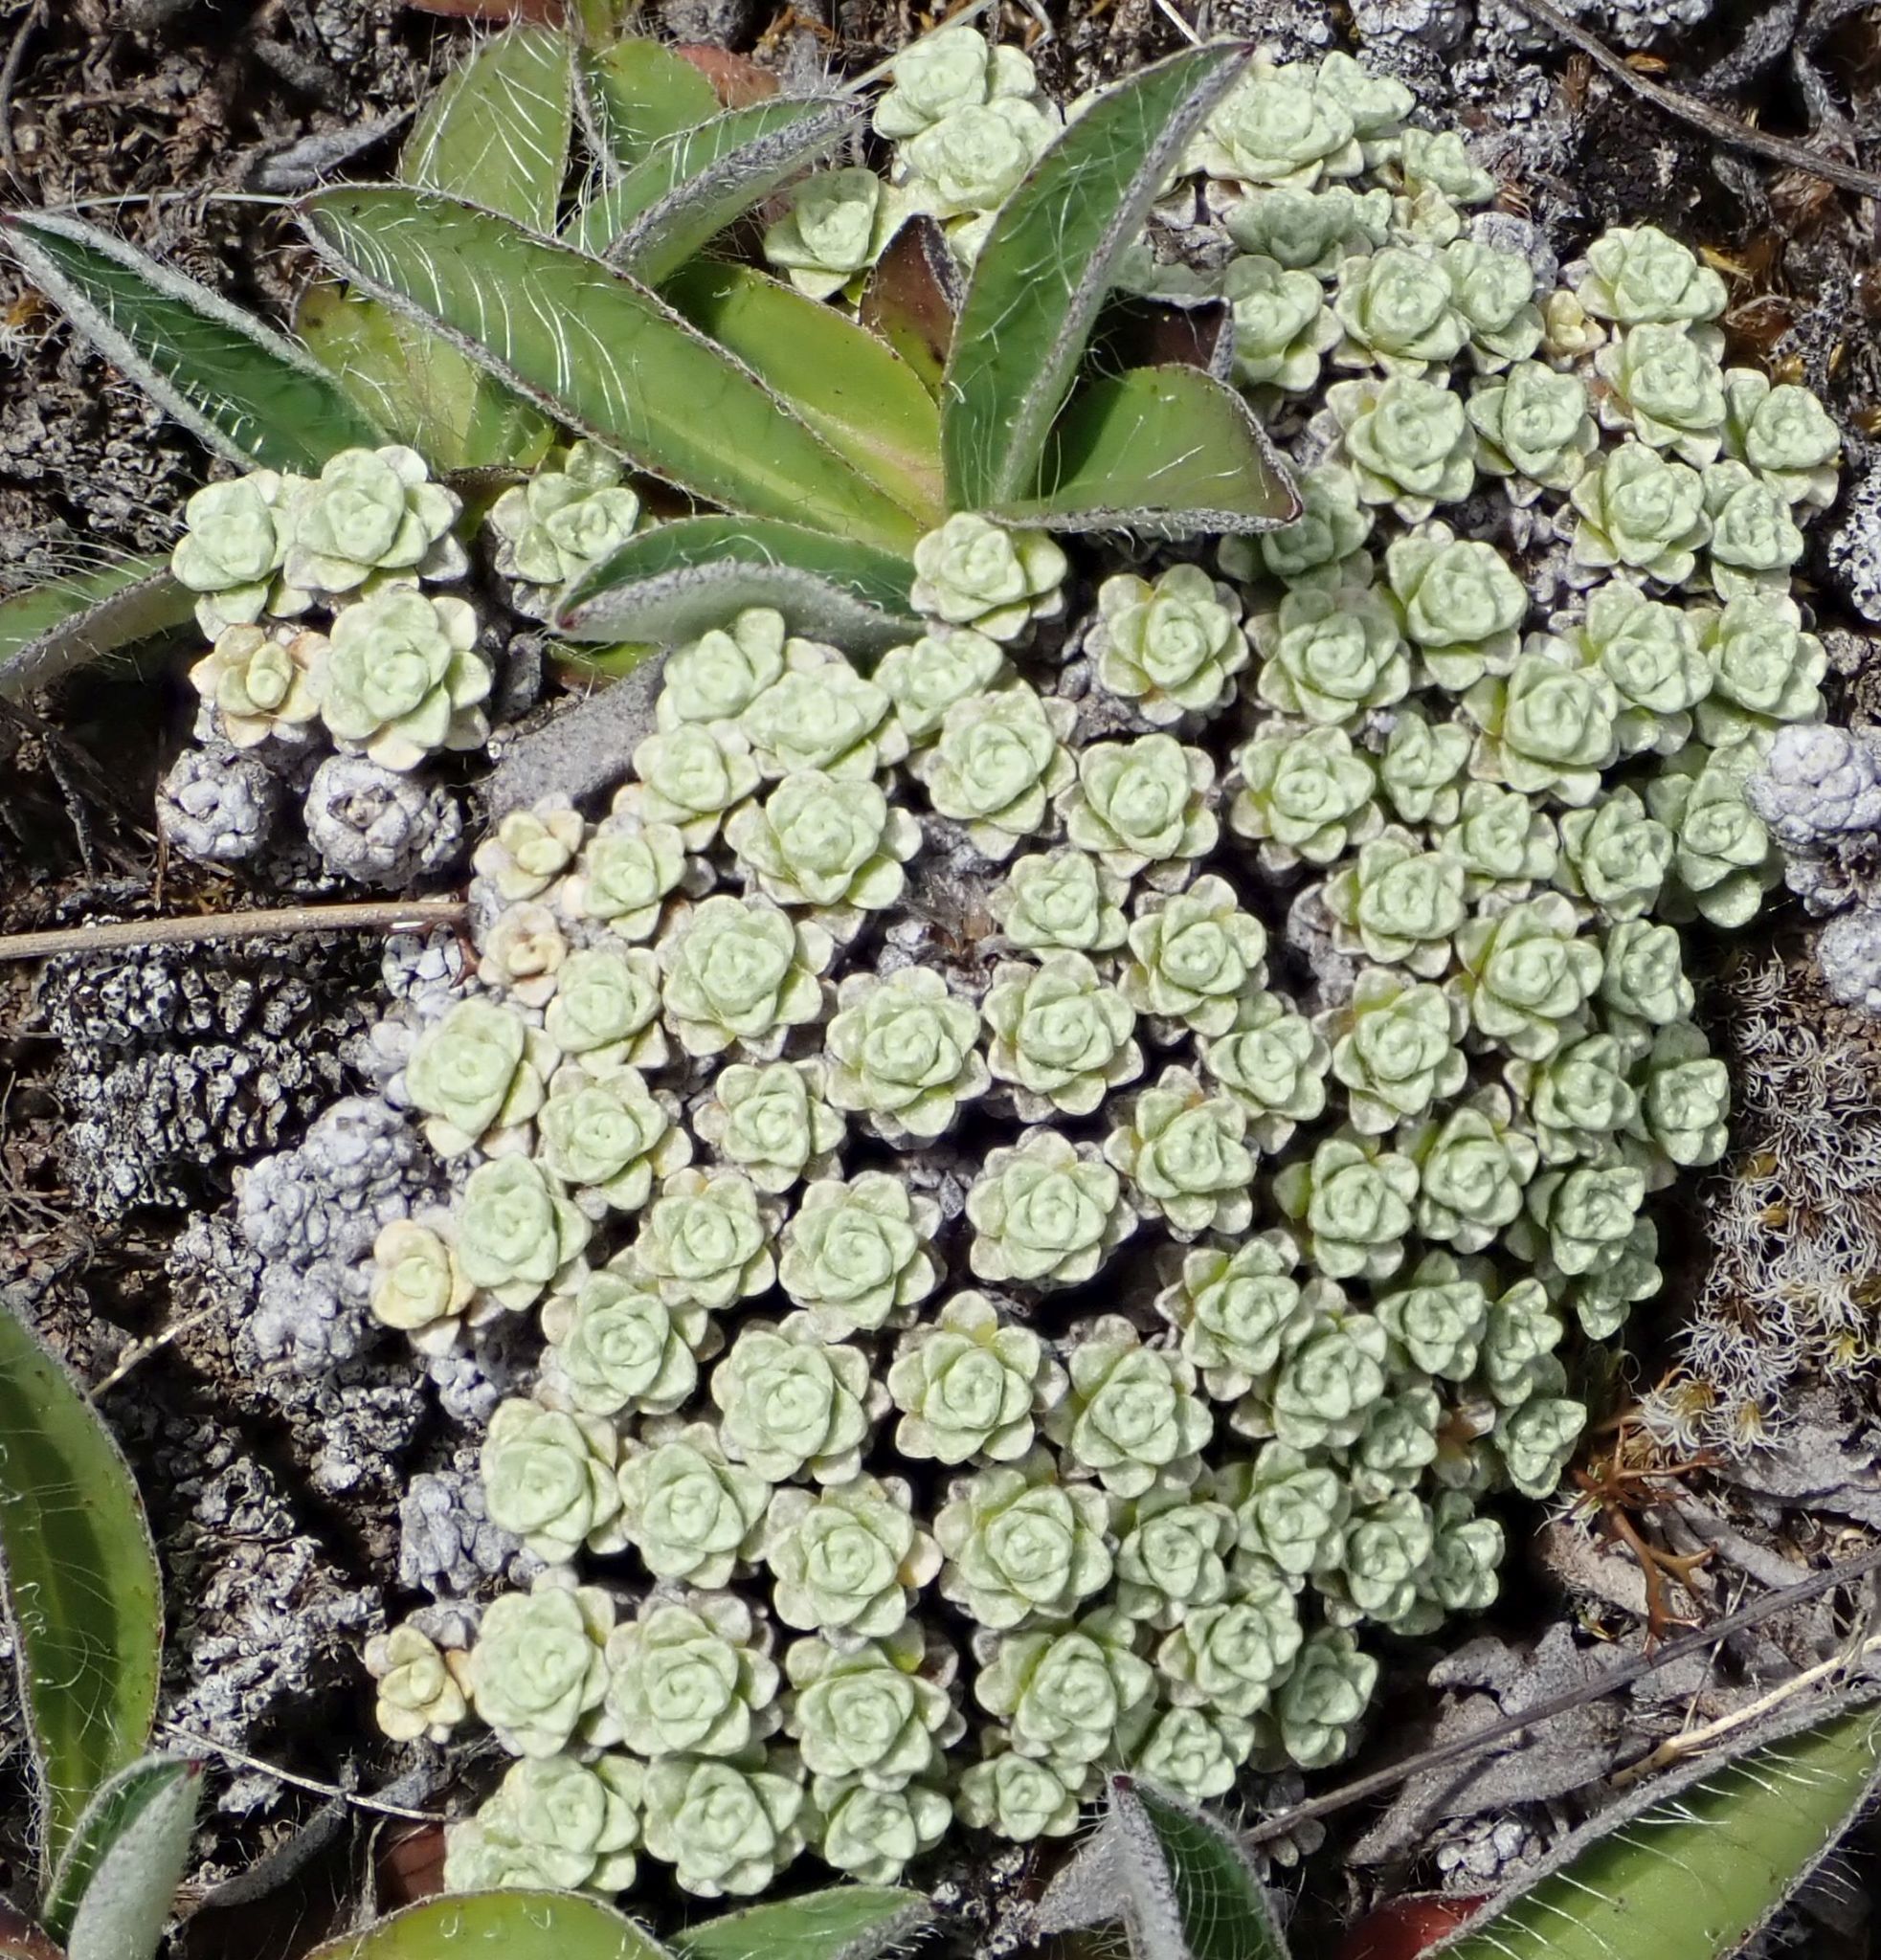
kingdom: Plantae
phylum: Tracheophyta
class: Magnoliopsida
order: Asterales
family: Asteraceae
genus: Raoulia
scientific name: Raoulia parkii
